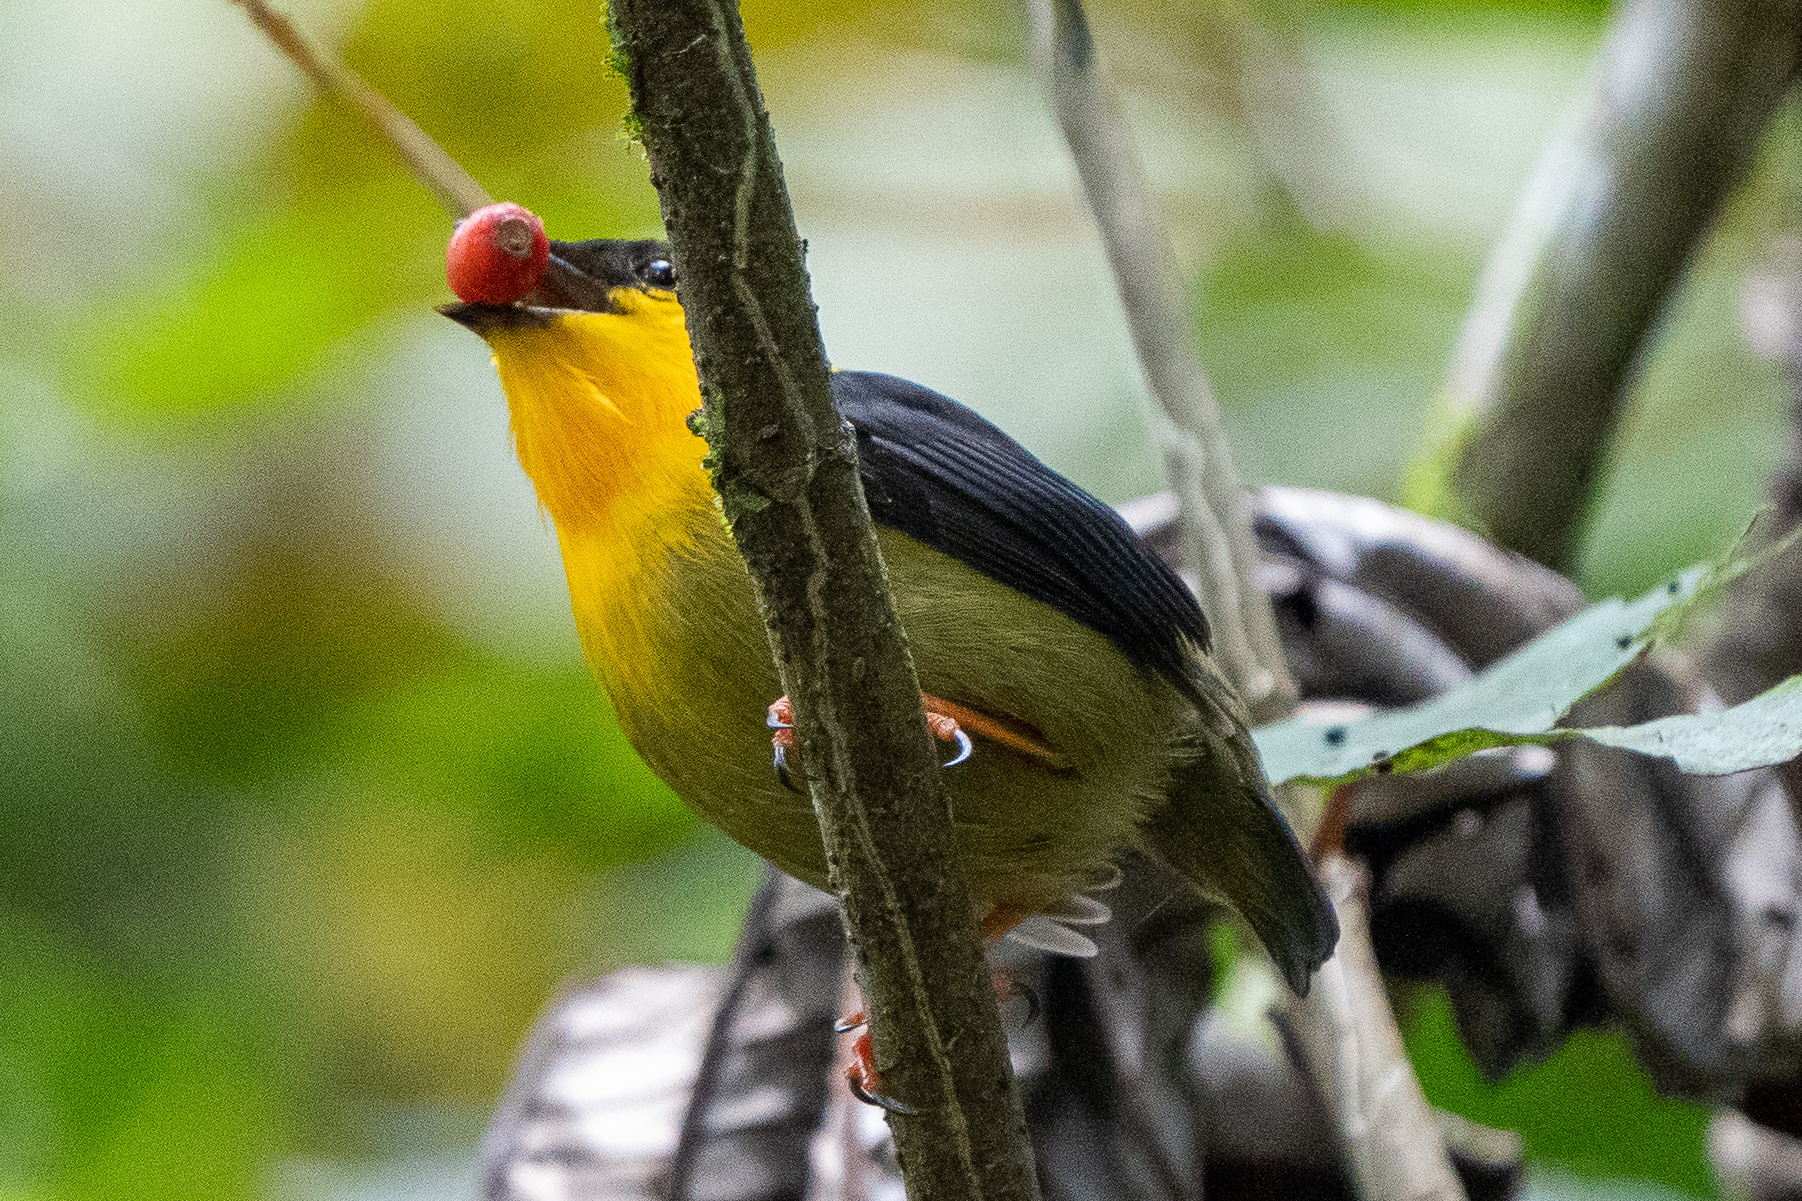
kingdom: Animalia
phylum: Chordata
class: Aves
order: Passeriformes
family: Pipridae
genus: Manacus
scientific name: Manacus vitellinus
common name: Golden-collared manakin
